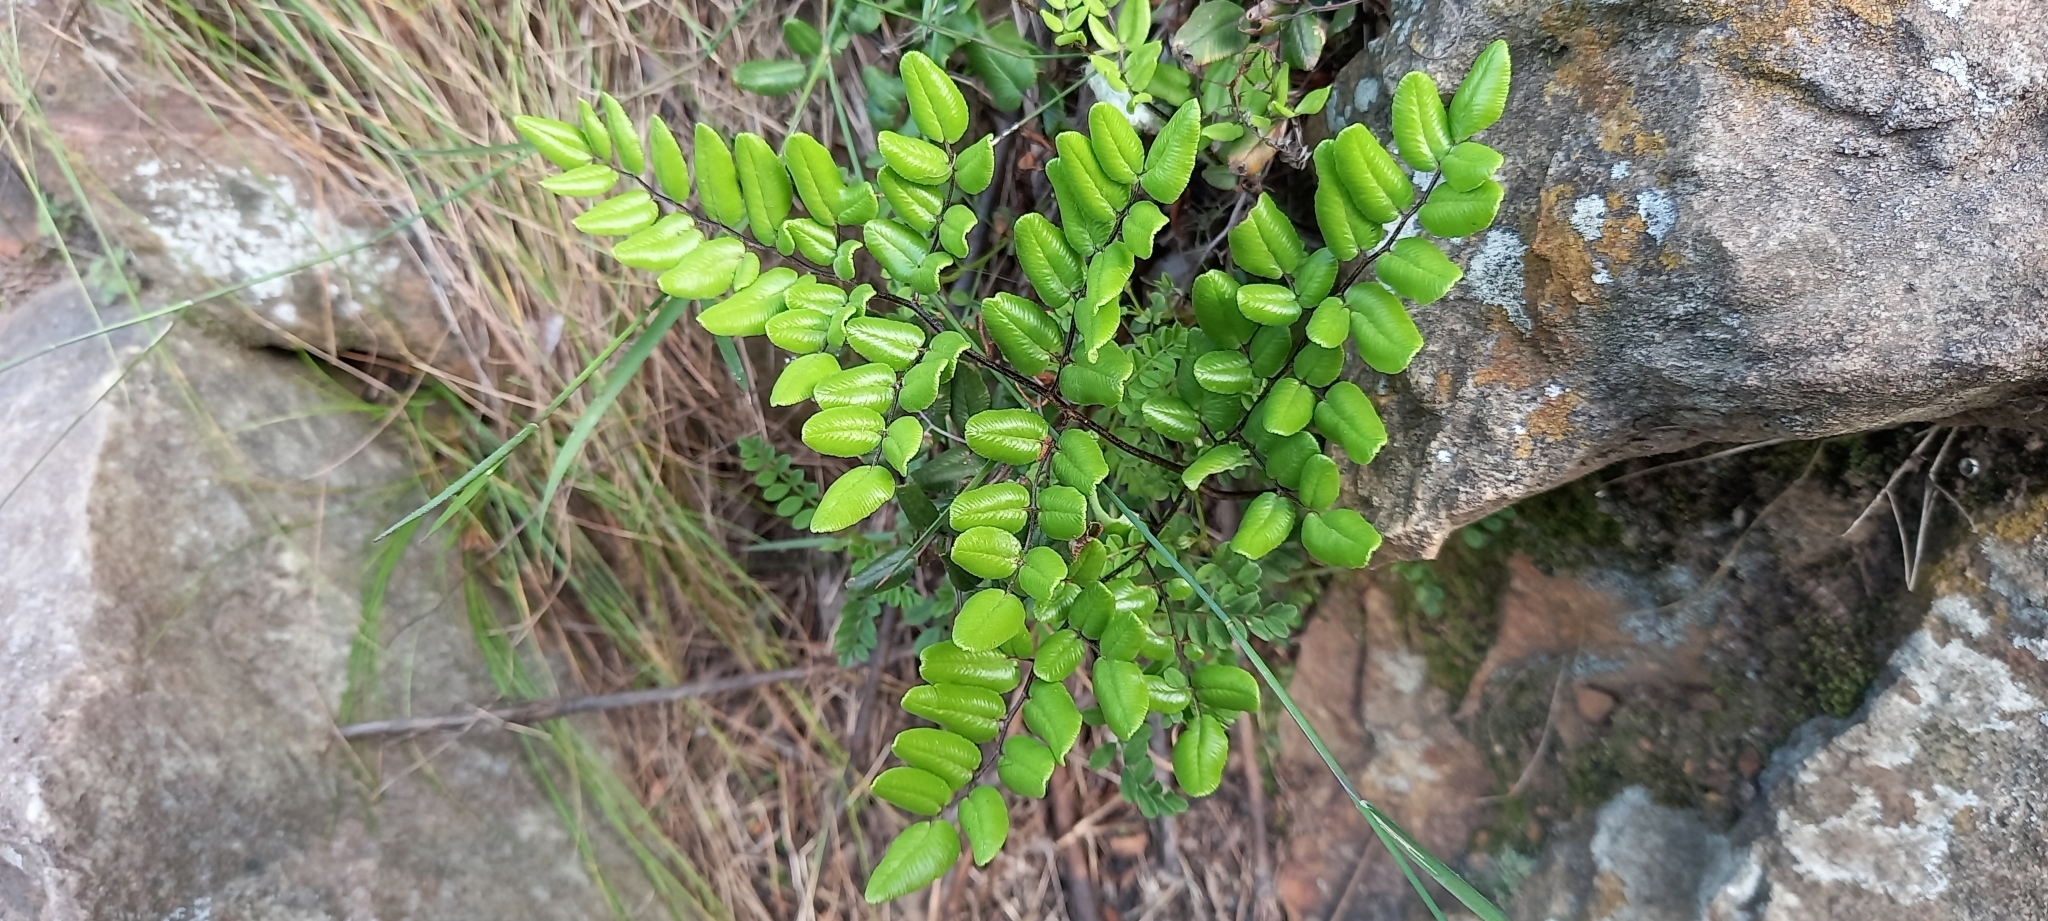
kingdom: Plantae
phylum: Tracheophyta
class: Polypodiopsida
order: Polypodiales
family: Pteridaceae
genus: Pellaea
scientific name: Pellaea pteroides
